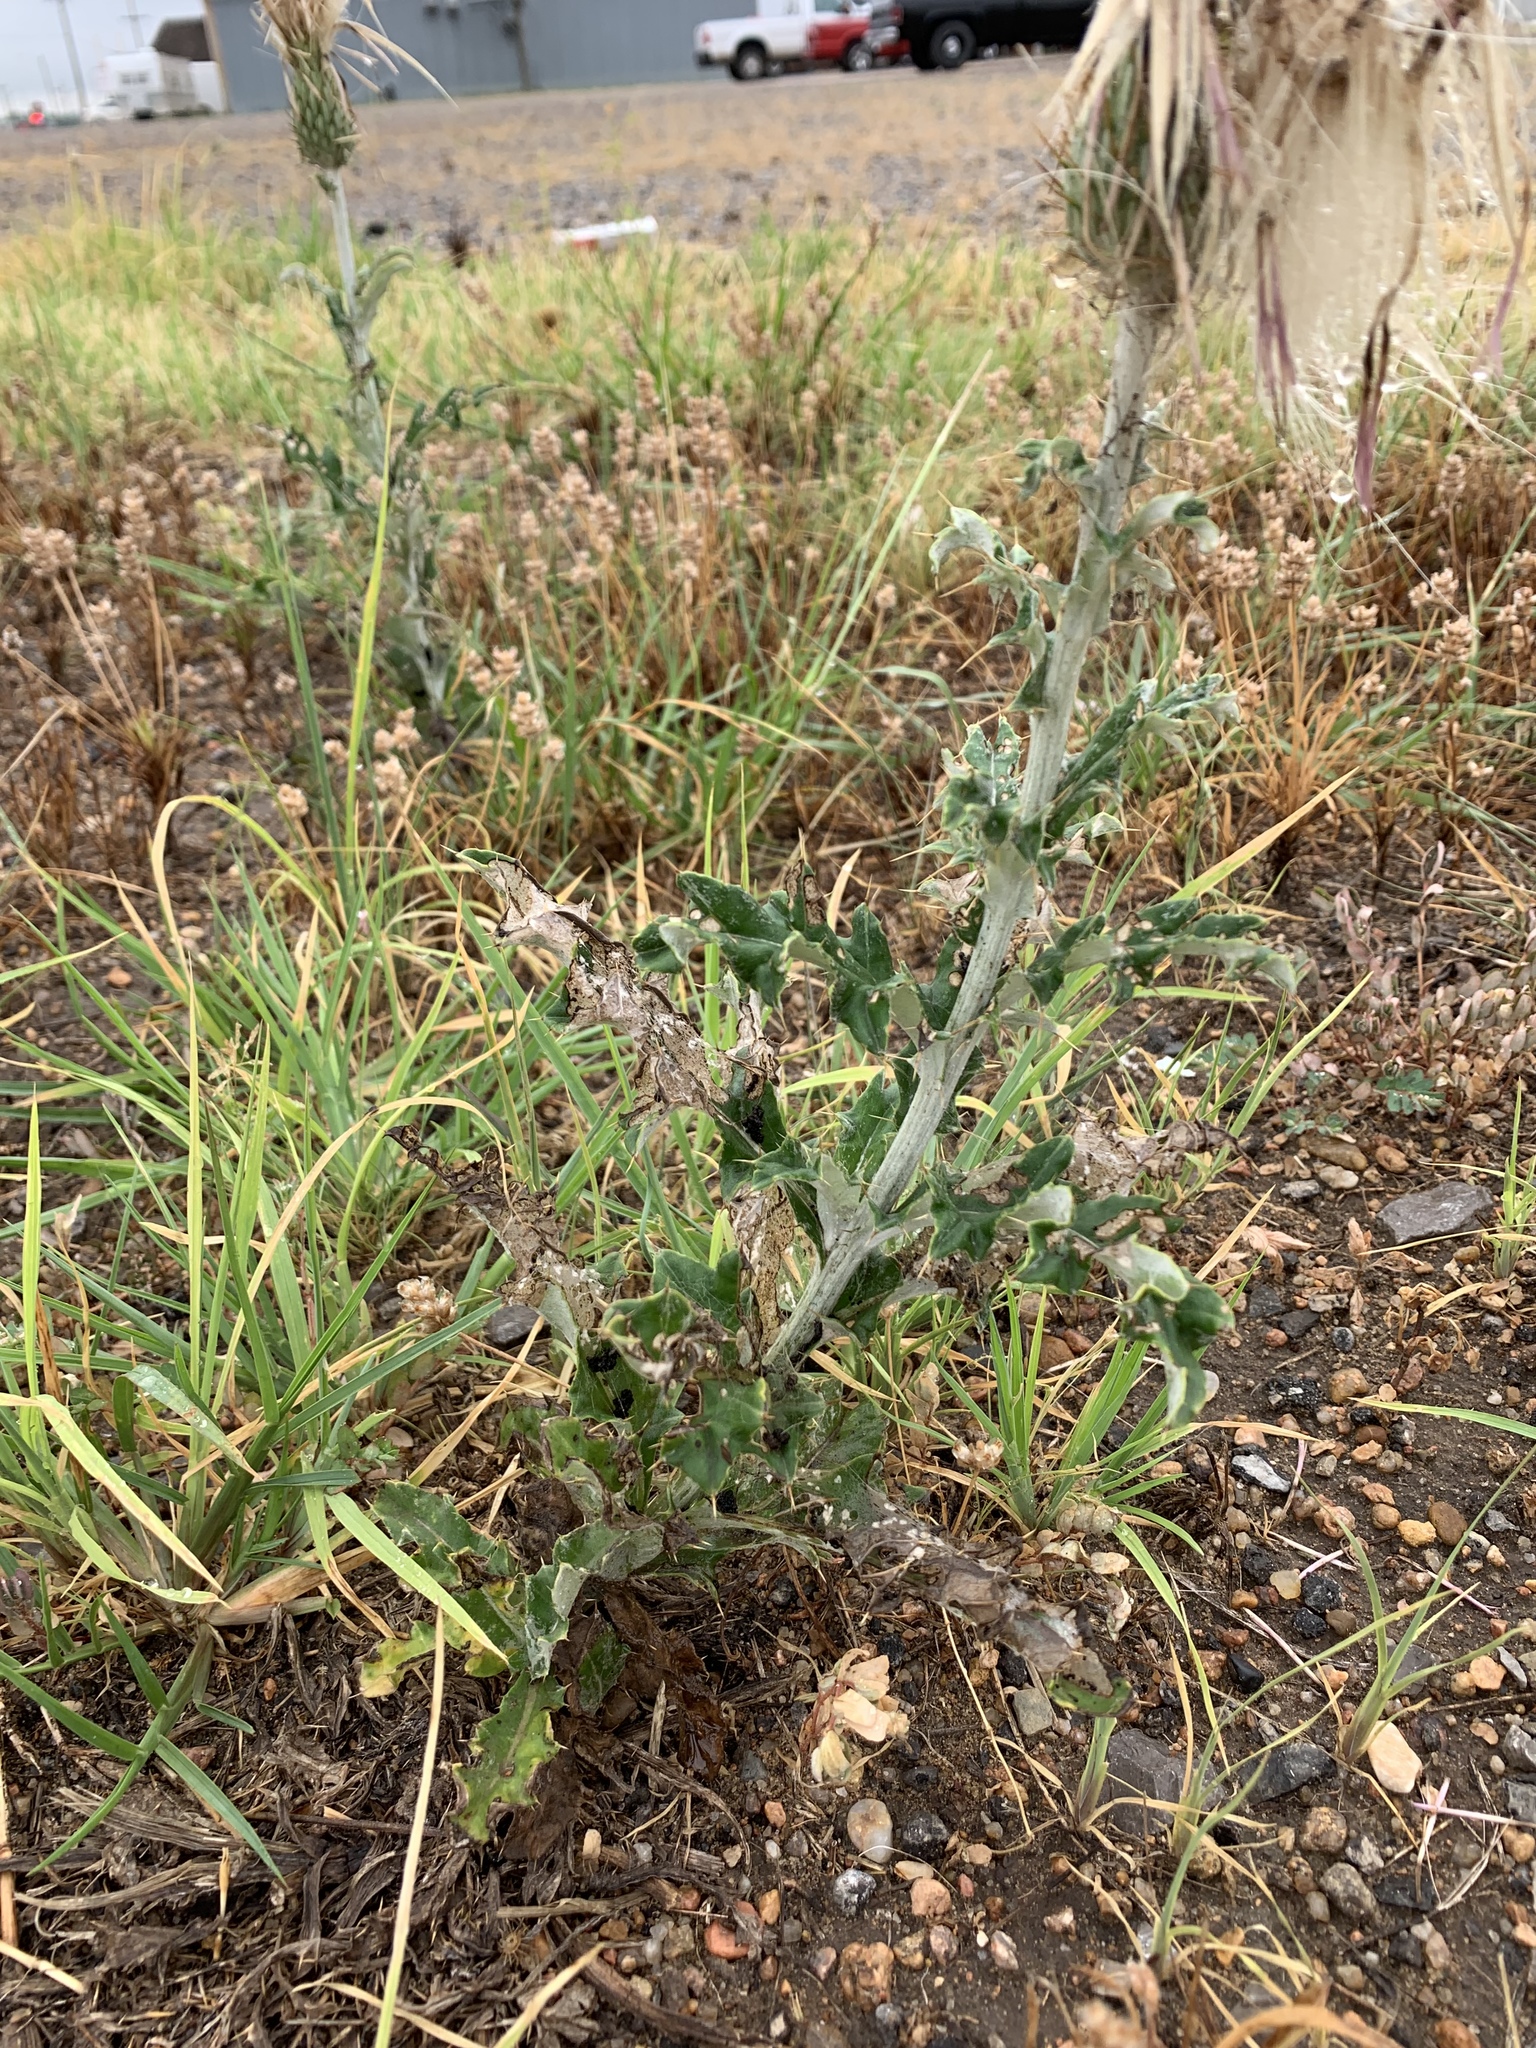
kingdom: Plantae
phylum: Tracheophyta
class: Magnoliopsida
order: Asterales
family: Asteraceae
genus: Cirsium
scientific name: Cirsium undulatum
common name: Pasture thistle
